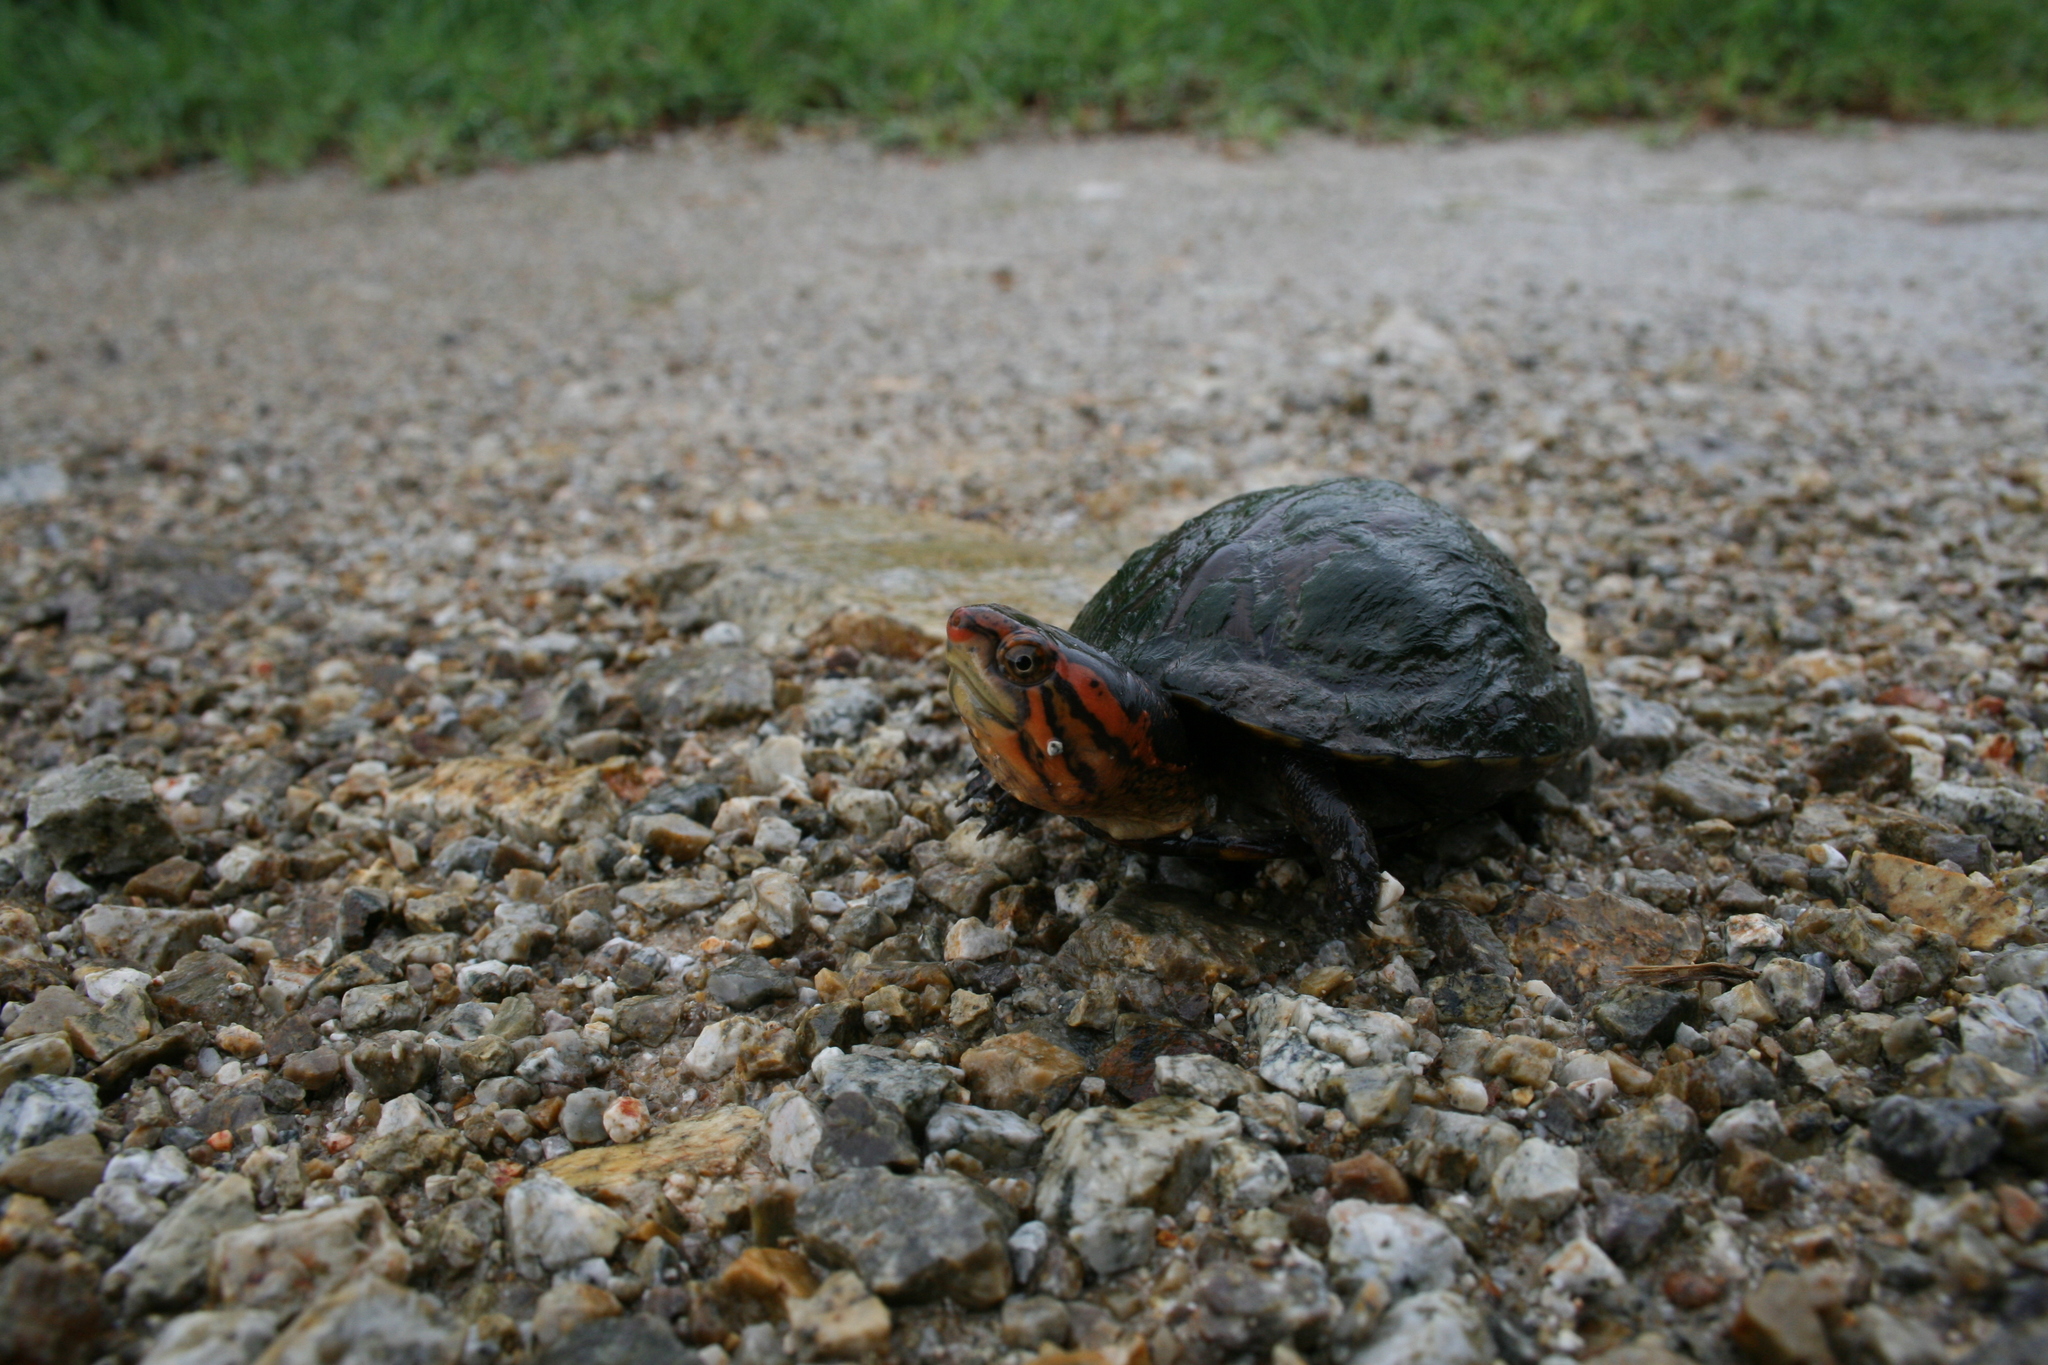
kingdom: Animalia
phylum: Chordata
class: Testudines
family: Kinosternidae
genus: Kinosternon
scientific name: Kinosternon scorpioides
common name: Scorpion mud turtle
